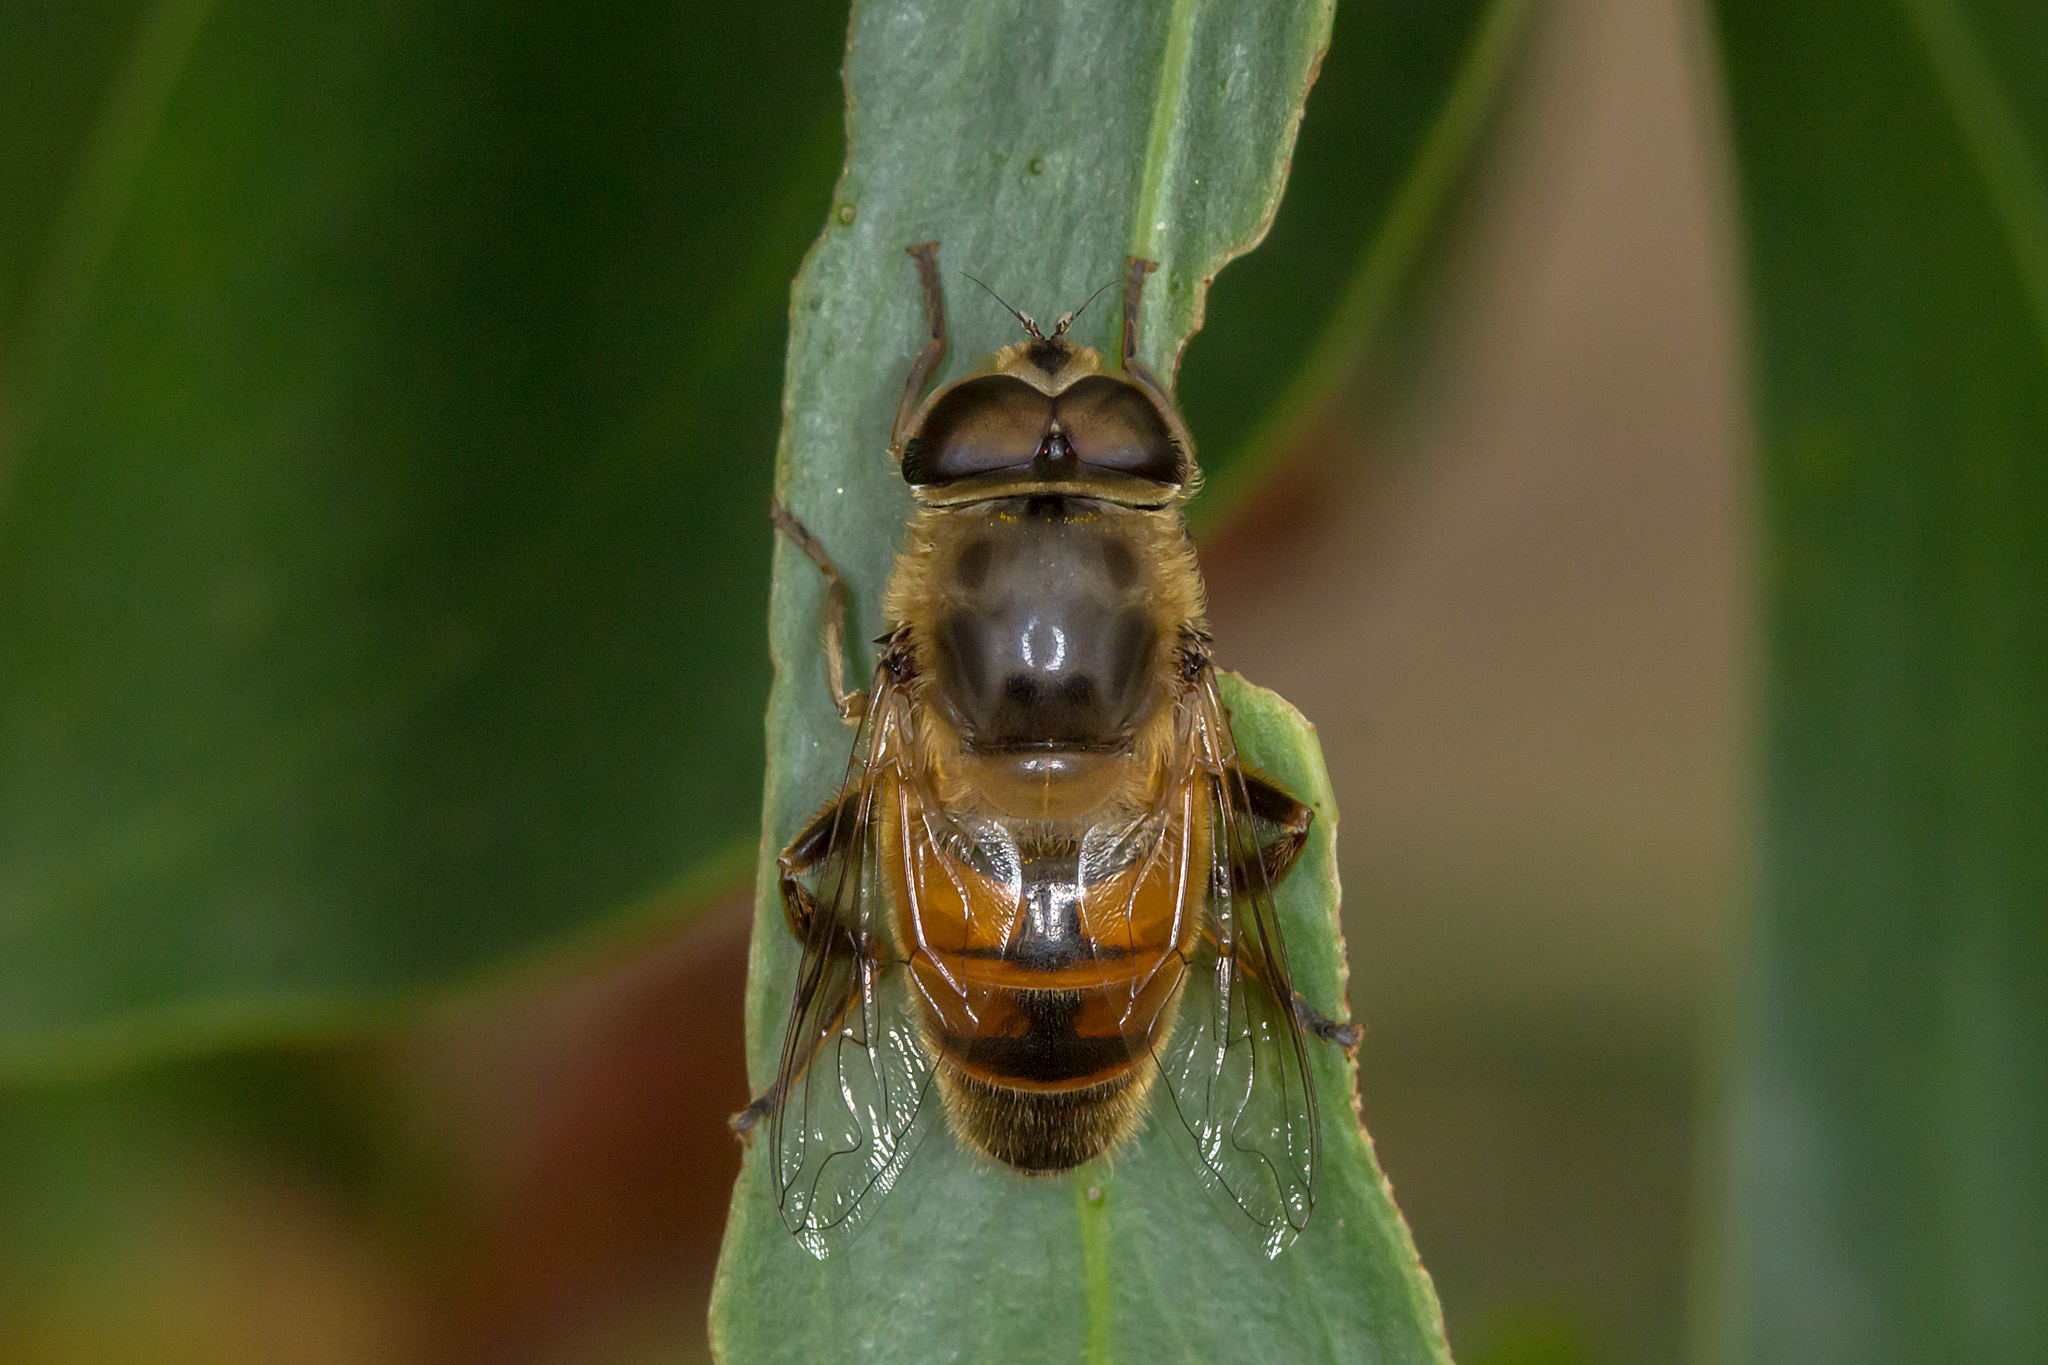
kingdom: Animalia
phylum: Arthropoda
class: Insecta
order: Diptera
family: Syrphidae
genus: Eristalis
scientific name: Eristalis tenax
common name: Drone fly
